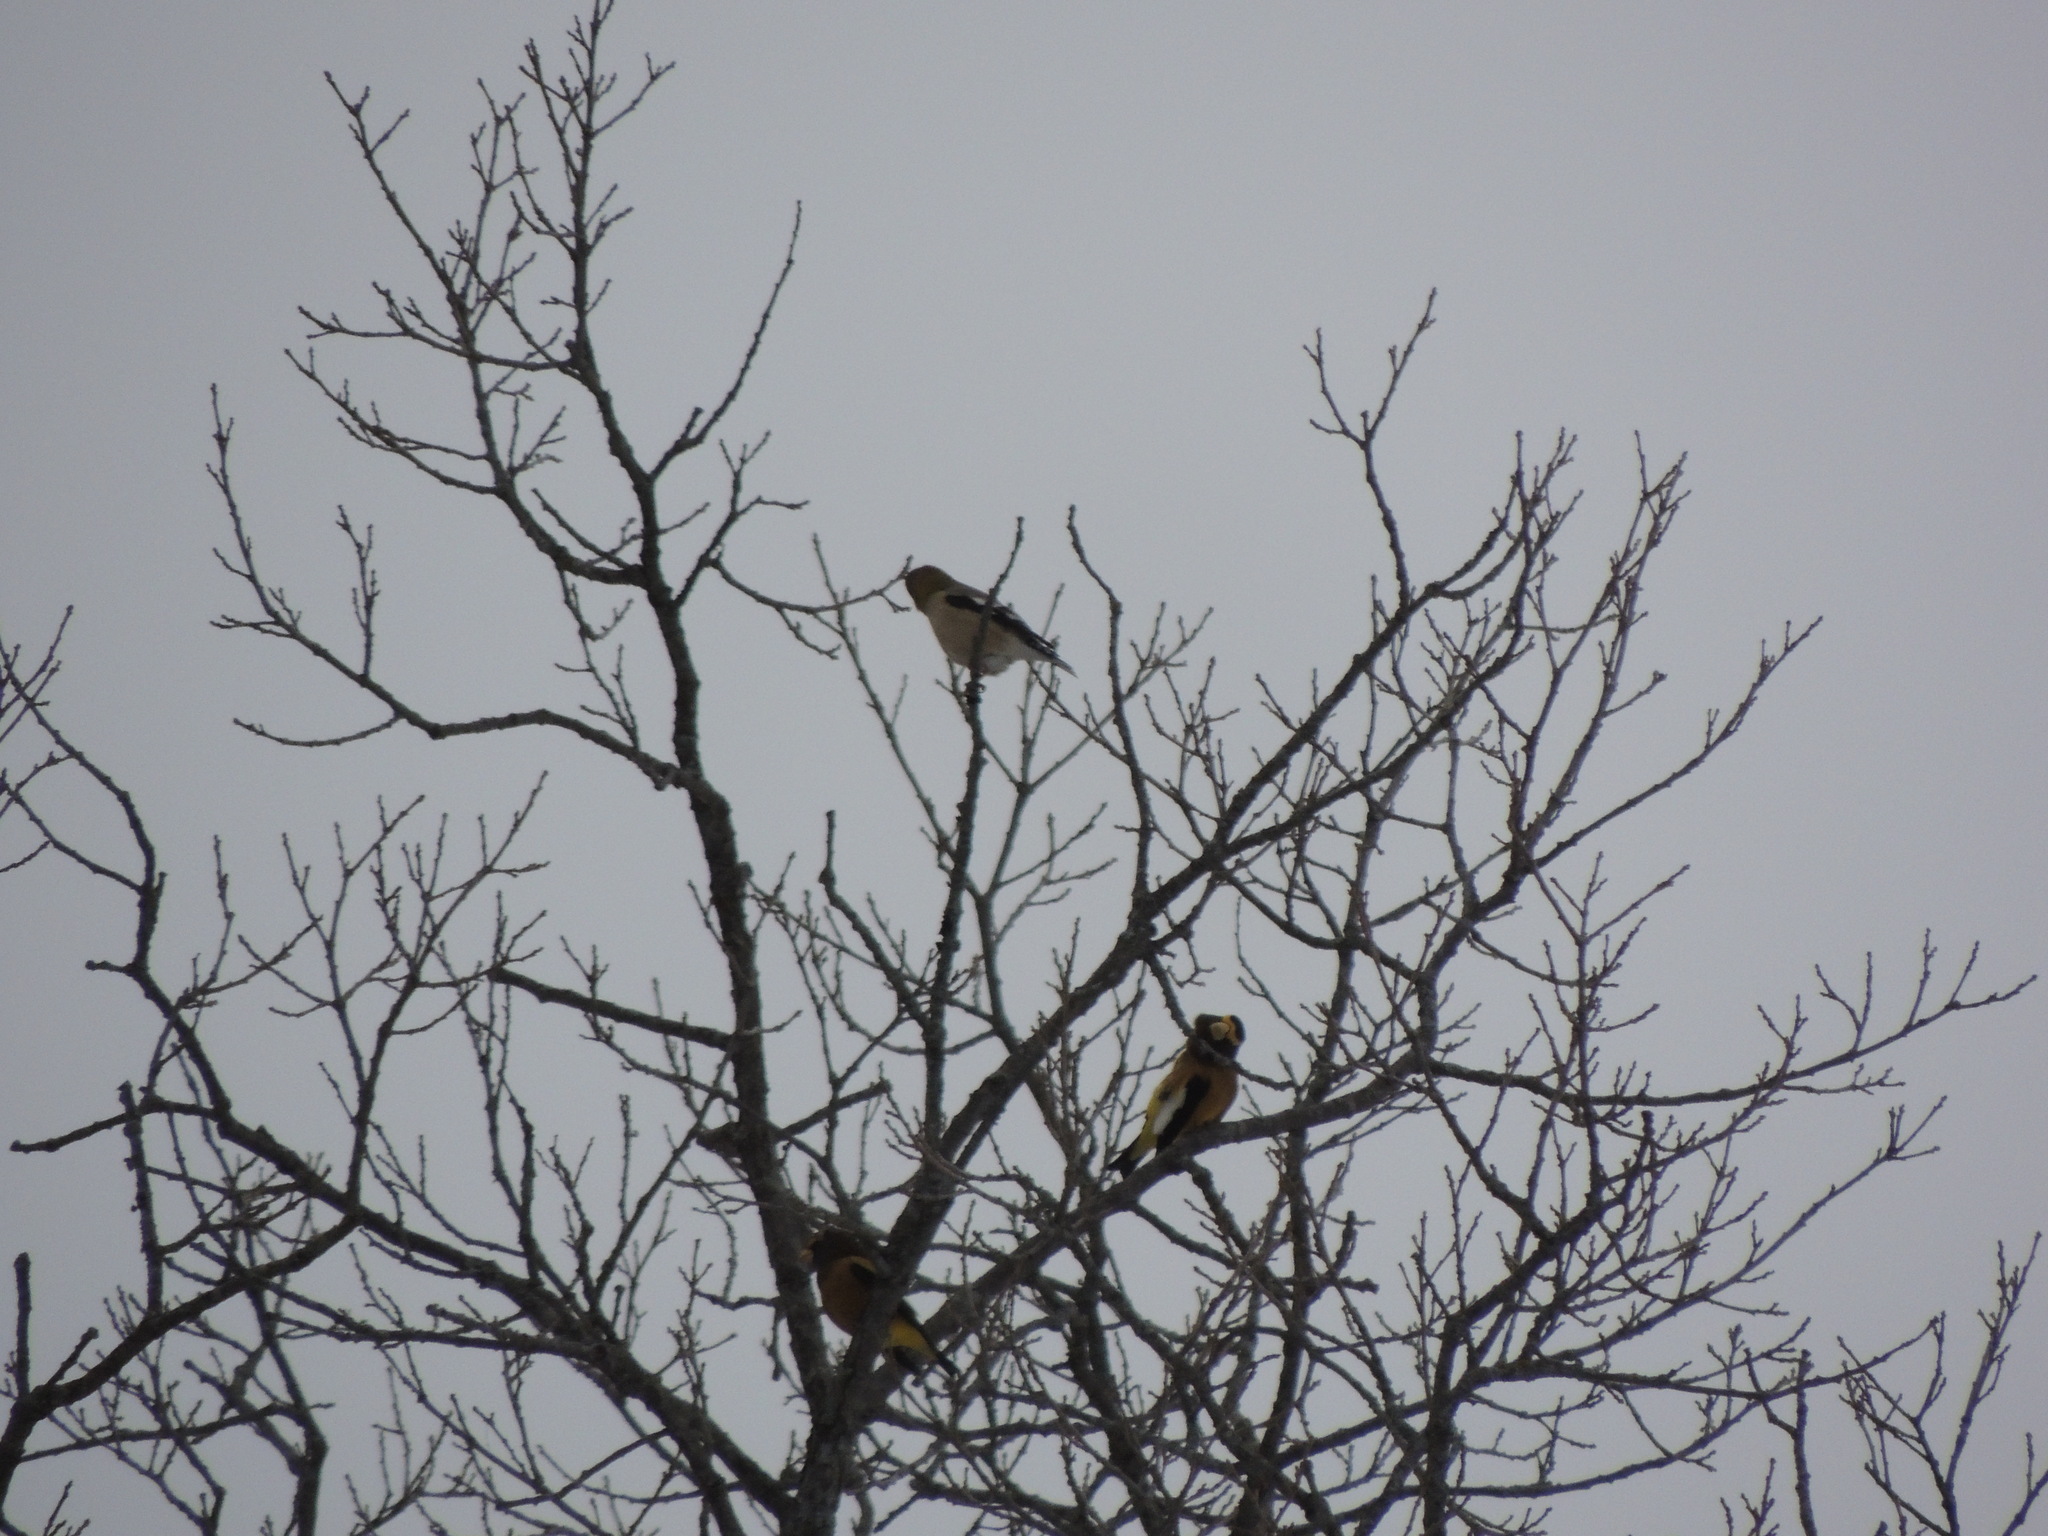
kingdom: Animalia
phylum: Chordata
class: Aves
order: Passeriformes
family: Fringillidae
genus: Hesperiphona
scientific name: Hesperiphona vespertina
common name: Evening grosbeak
